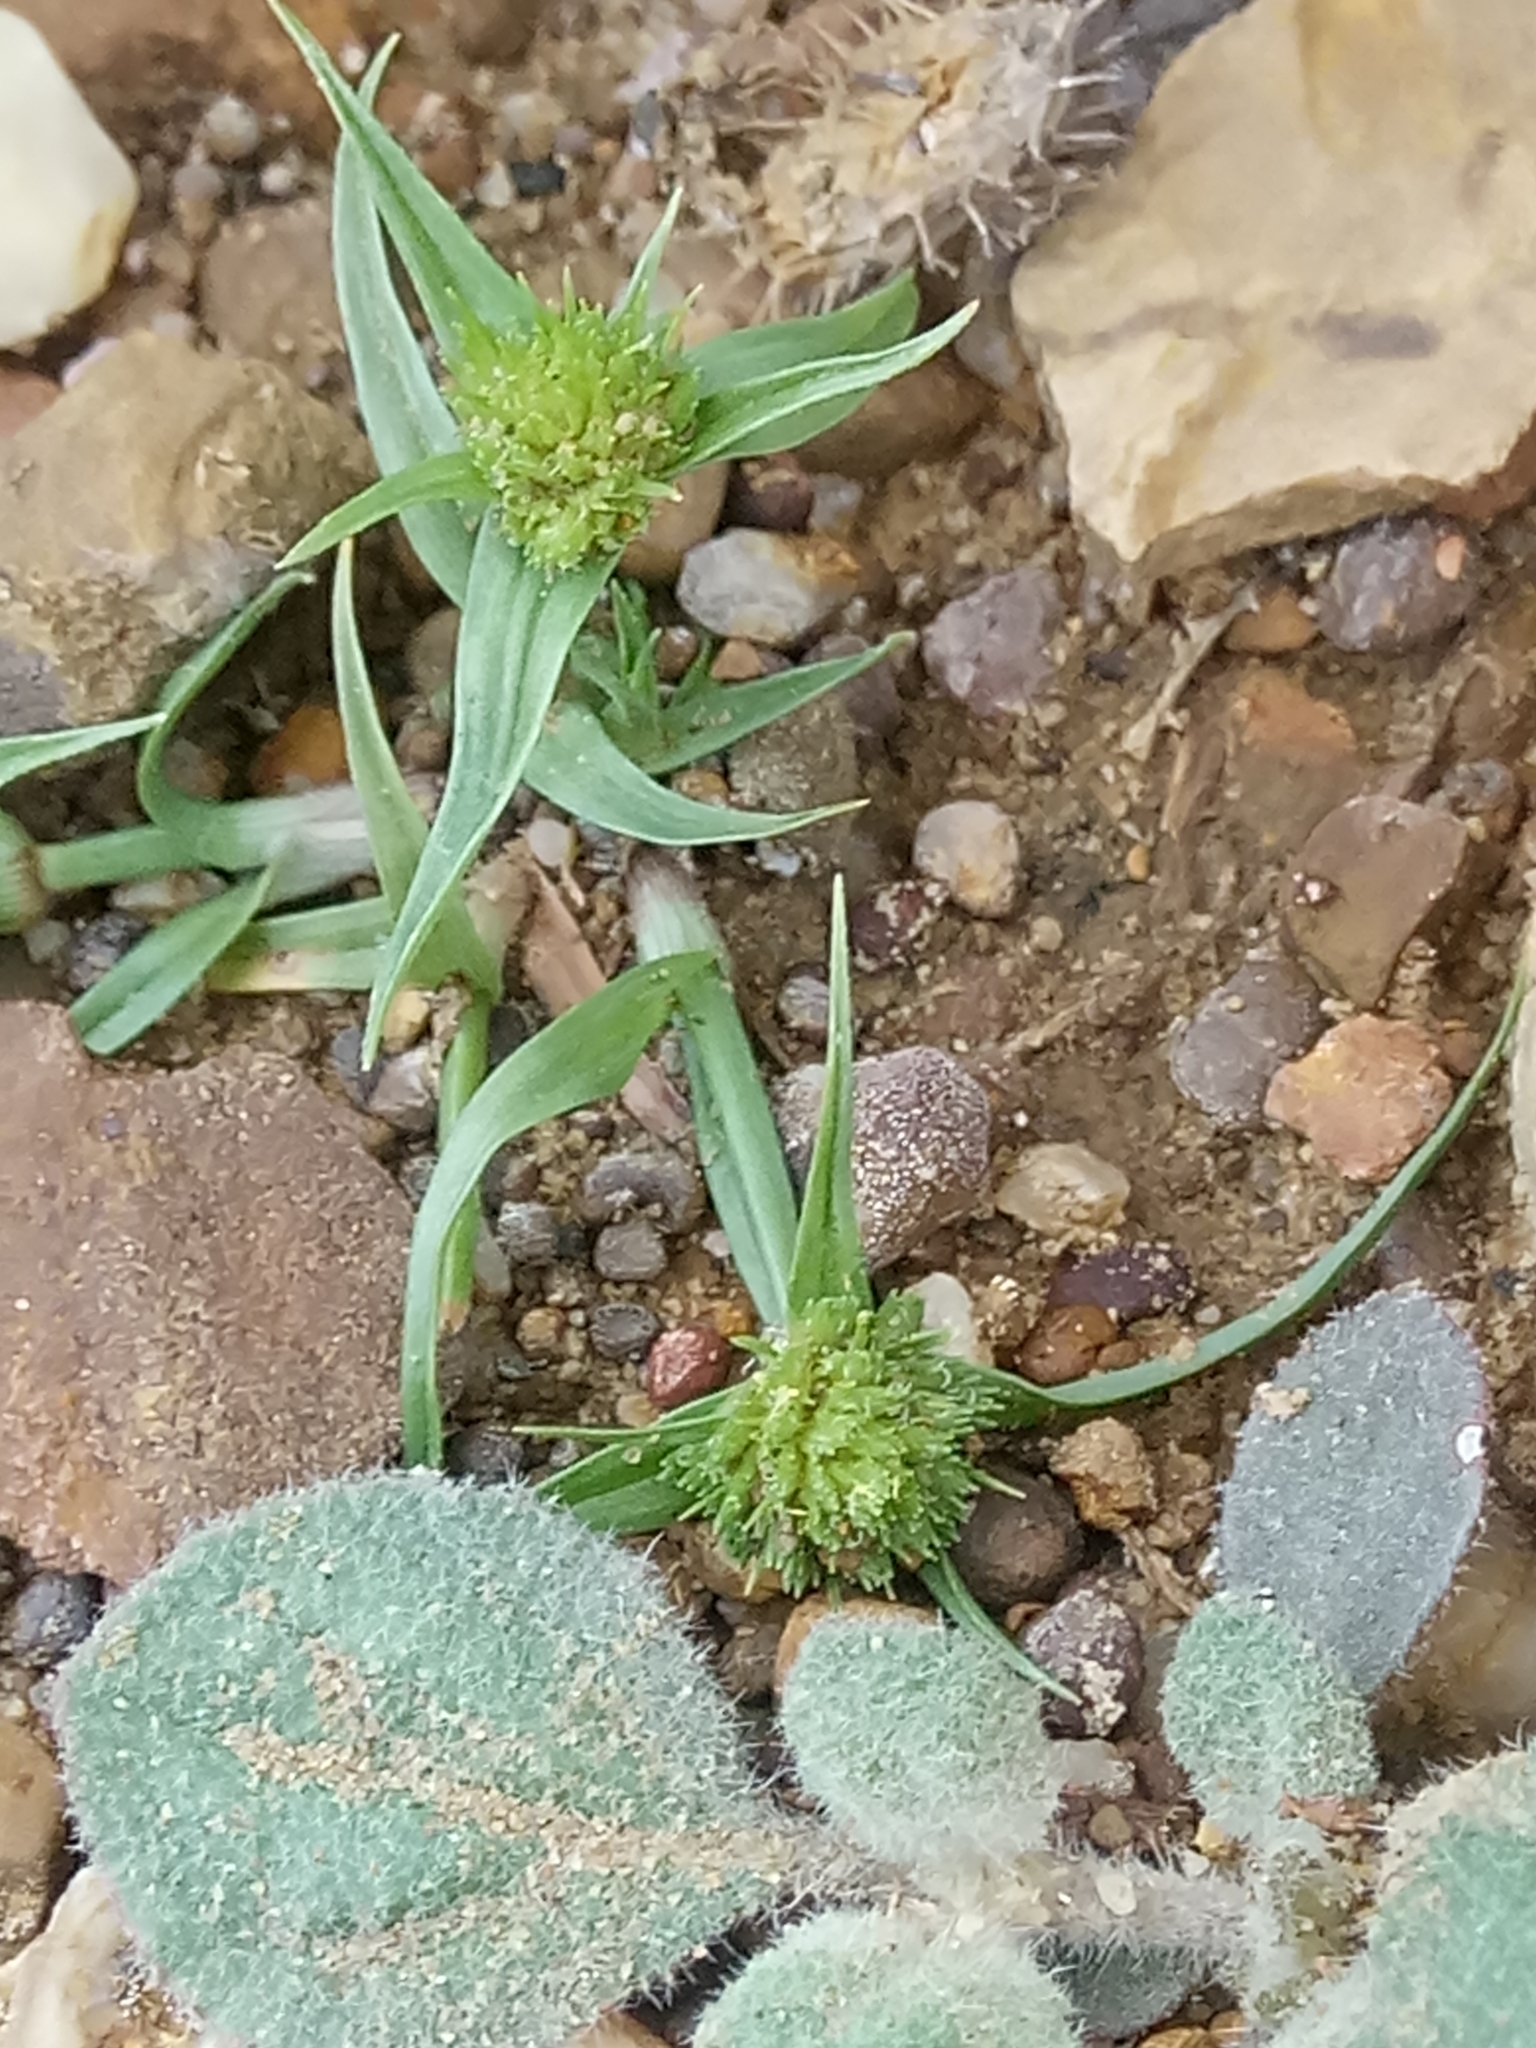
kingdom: Plantae
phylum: Tracheophyta
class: Liliopsida
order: Poales
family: Cyperaceae
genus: Cyperus
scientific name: Cyperus michelianus
